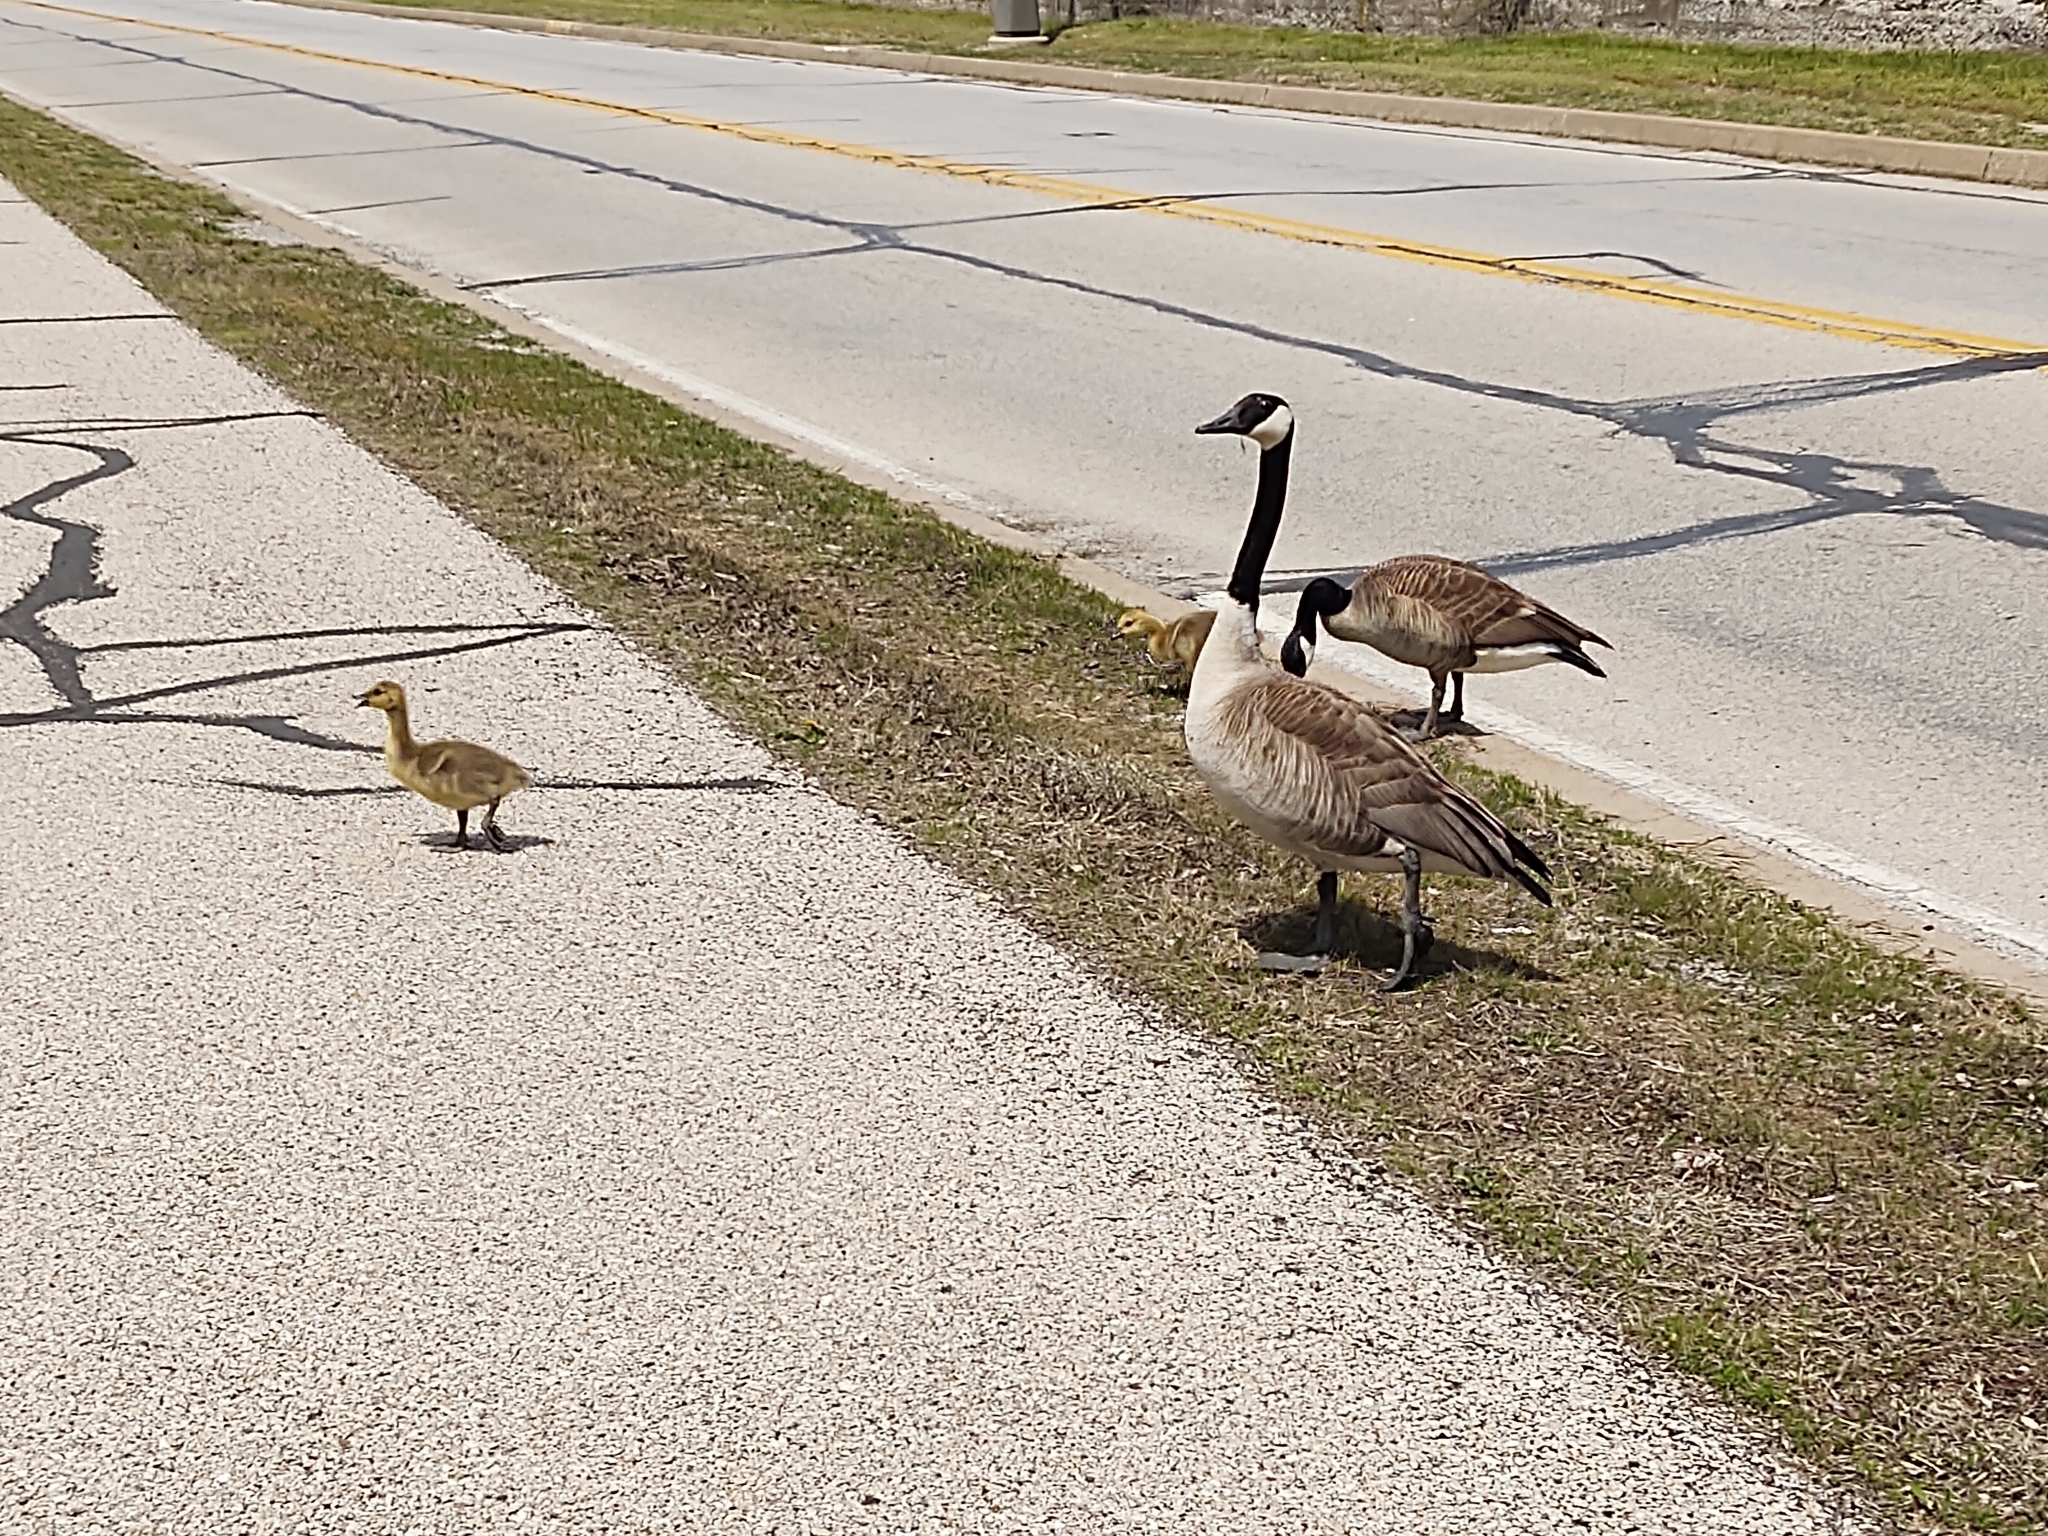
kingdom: Animalia
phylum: Chordata
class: Aves
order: Anseriformes
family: Anatidae
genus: Branta
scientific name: Branta canadensis
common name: Canada goose
